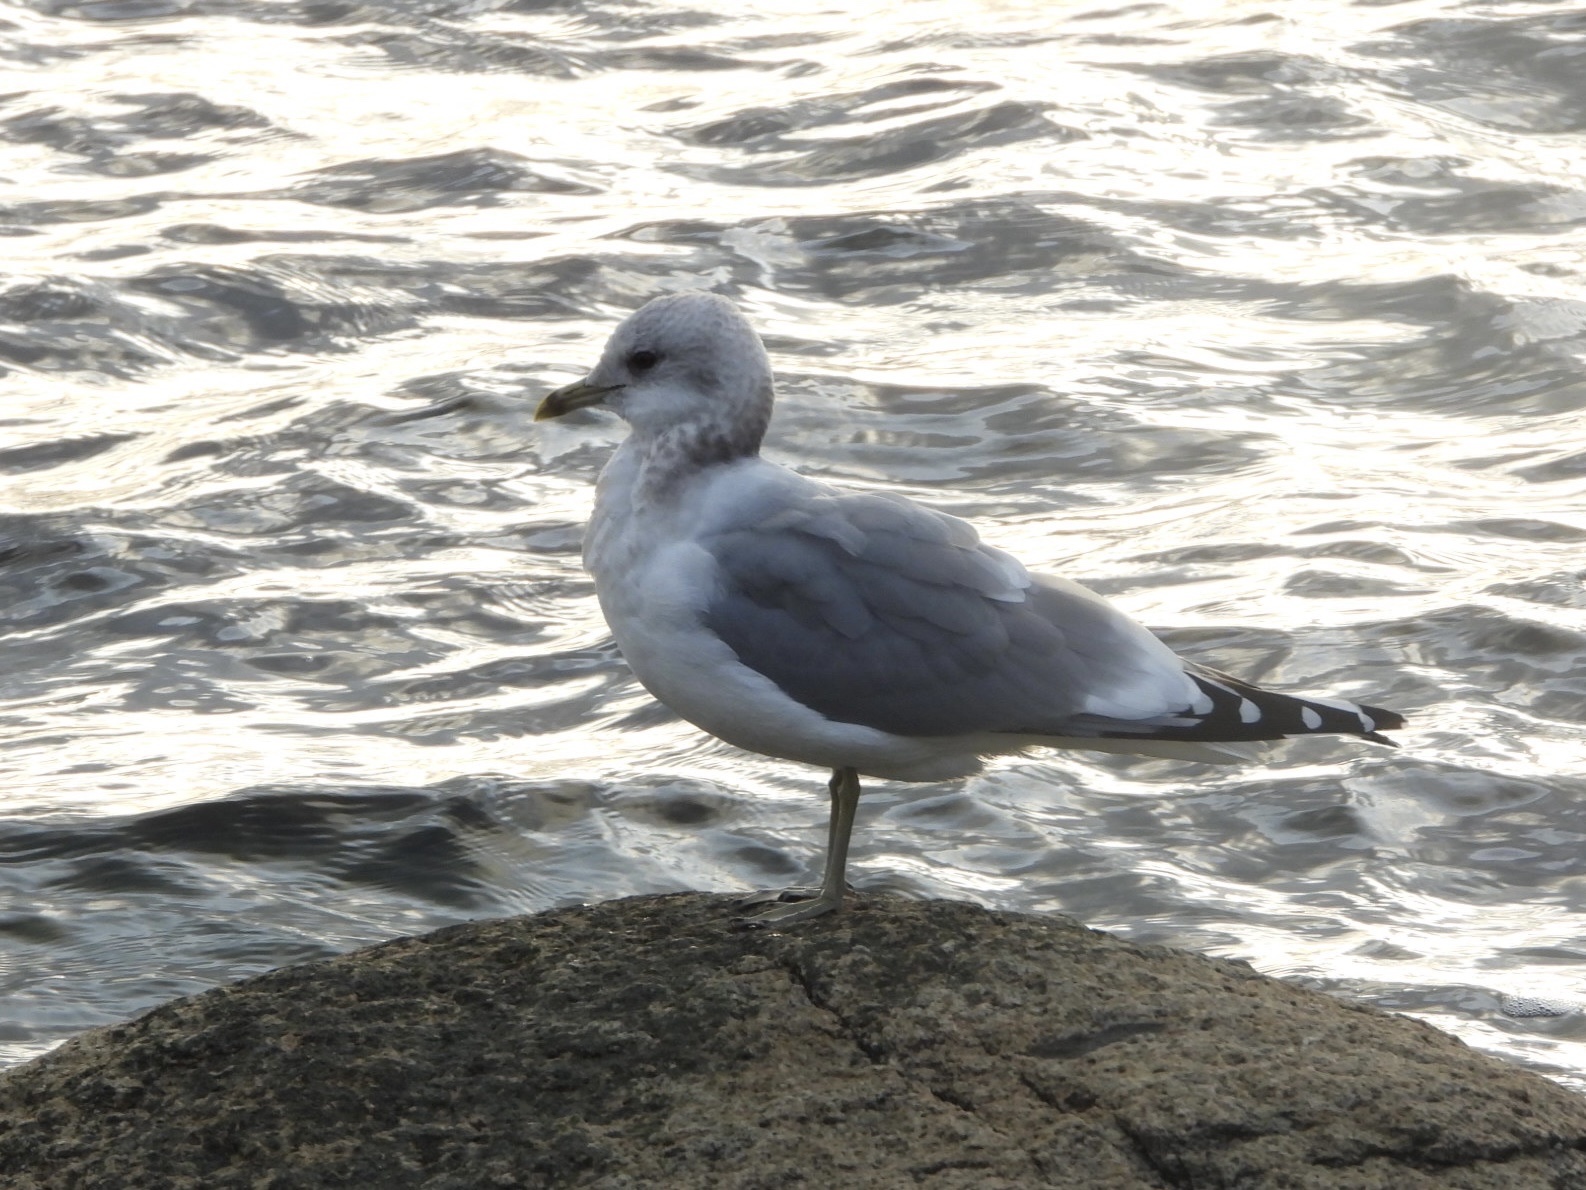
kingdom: Animalia
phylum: Chordata
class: Aves
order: Charadriiformes
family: Laridae
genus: Larus
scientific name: Larus brachyrhynchus
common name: Short-billed gull
